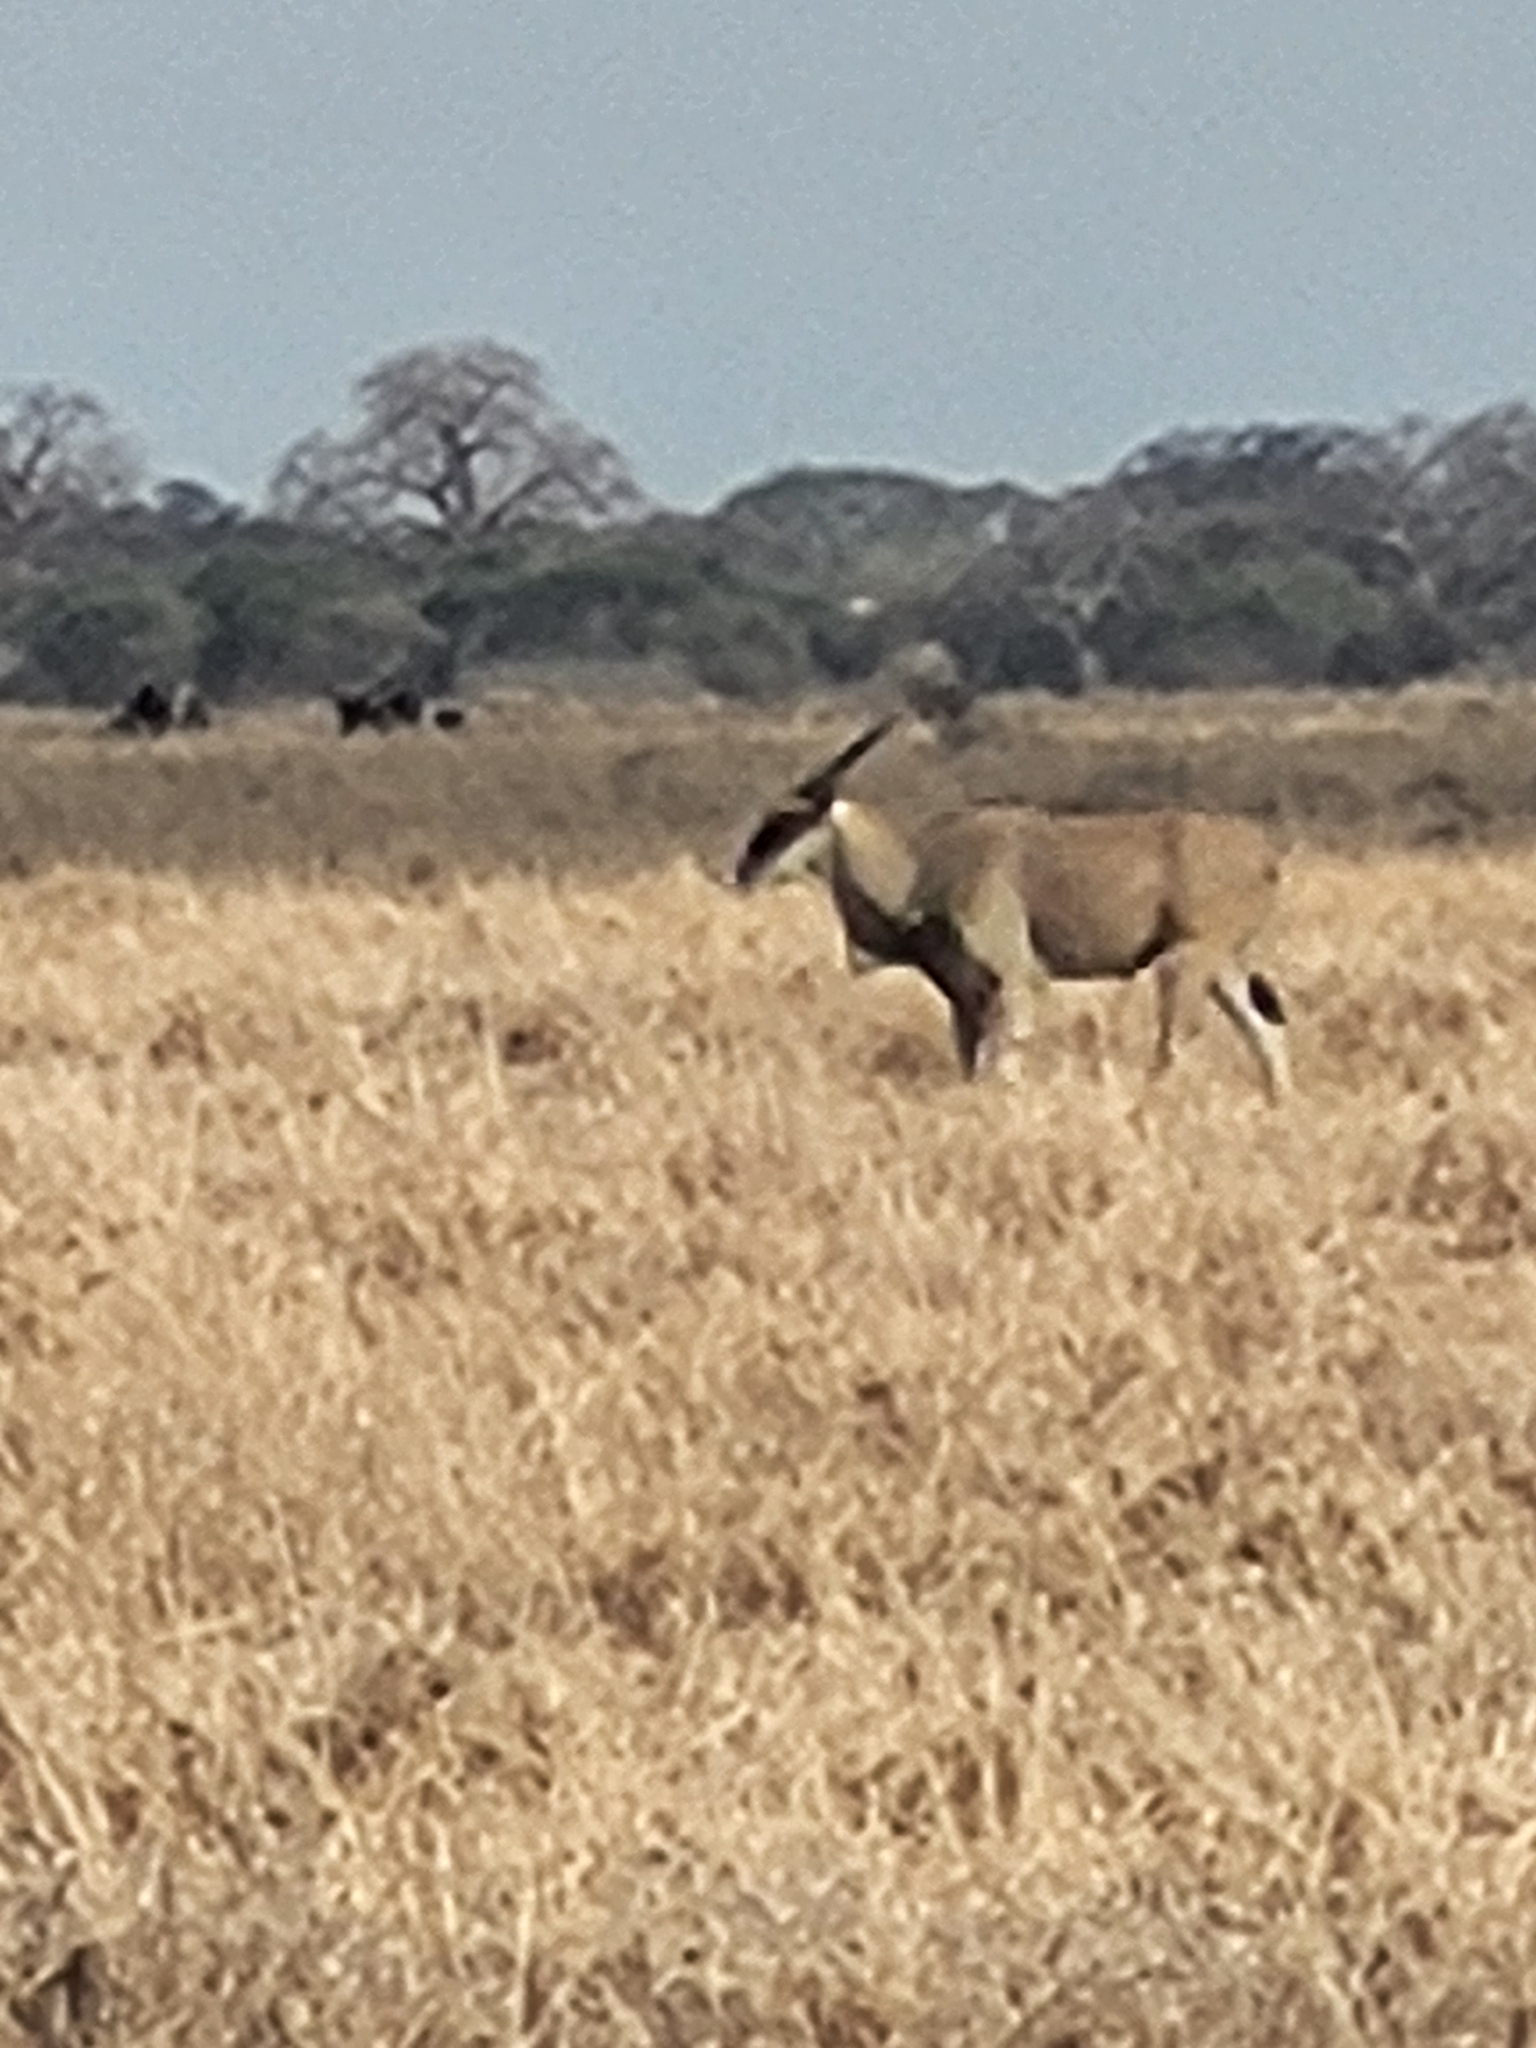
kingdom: Animalia
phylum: Chordata
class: Mammalia
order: Artiodactyla
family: Bovidae
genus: Taurotragus
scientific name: Taurotragus oryx
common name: Common eland
